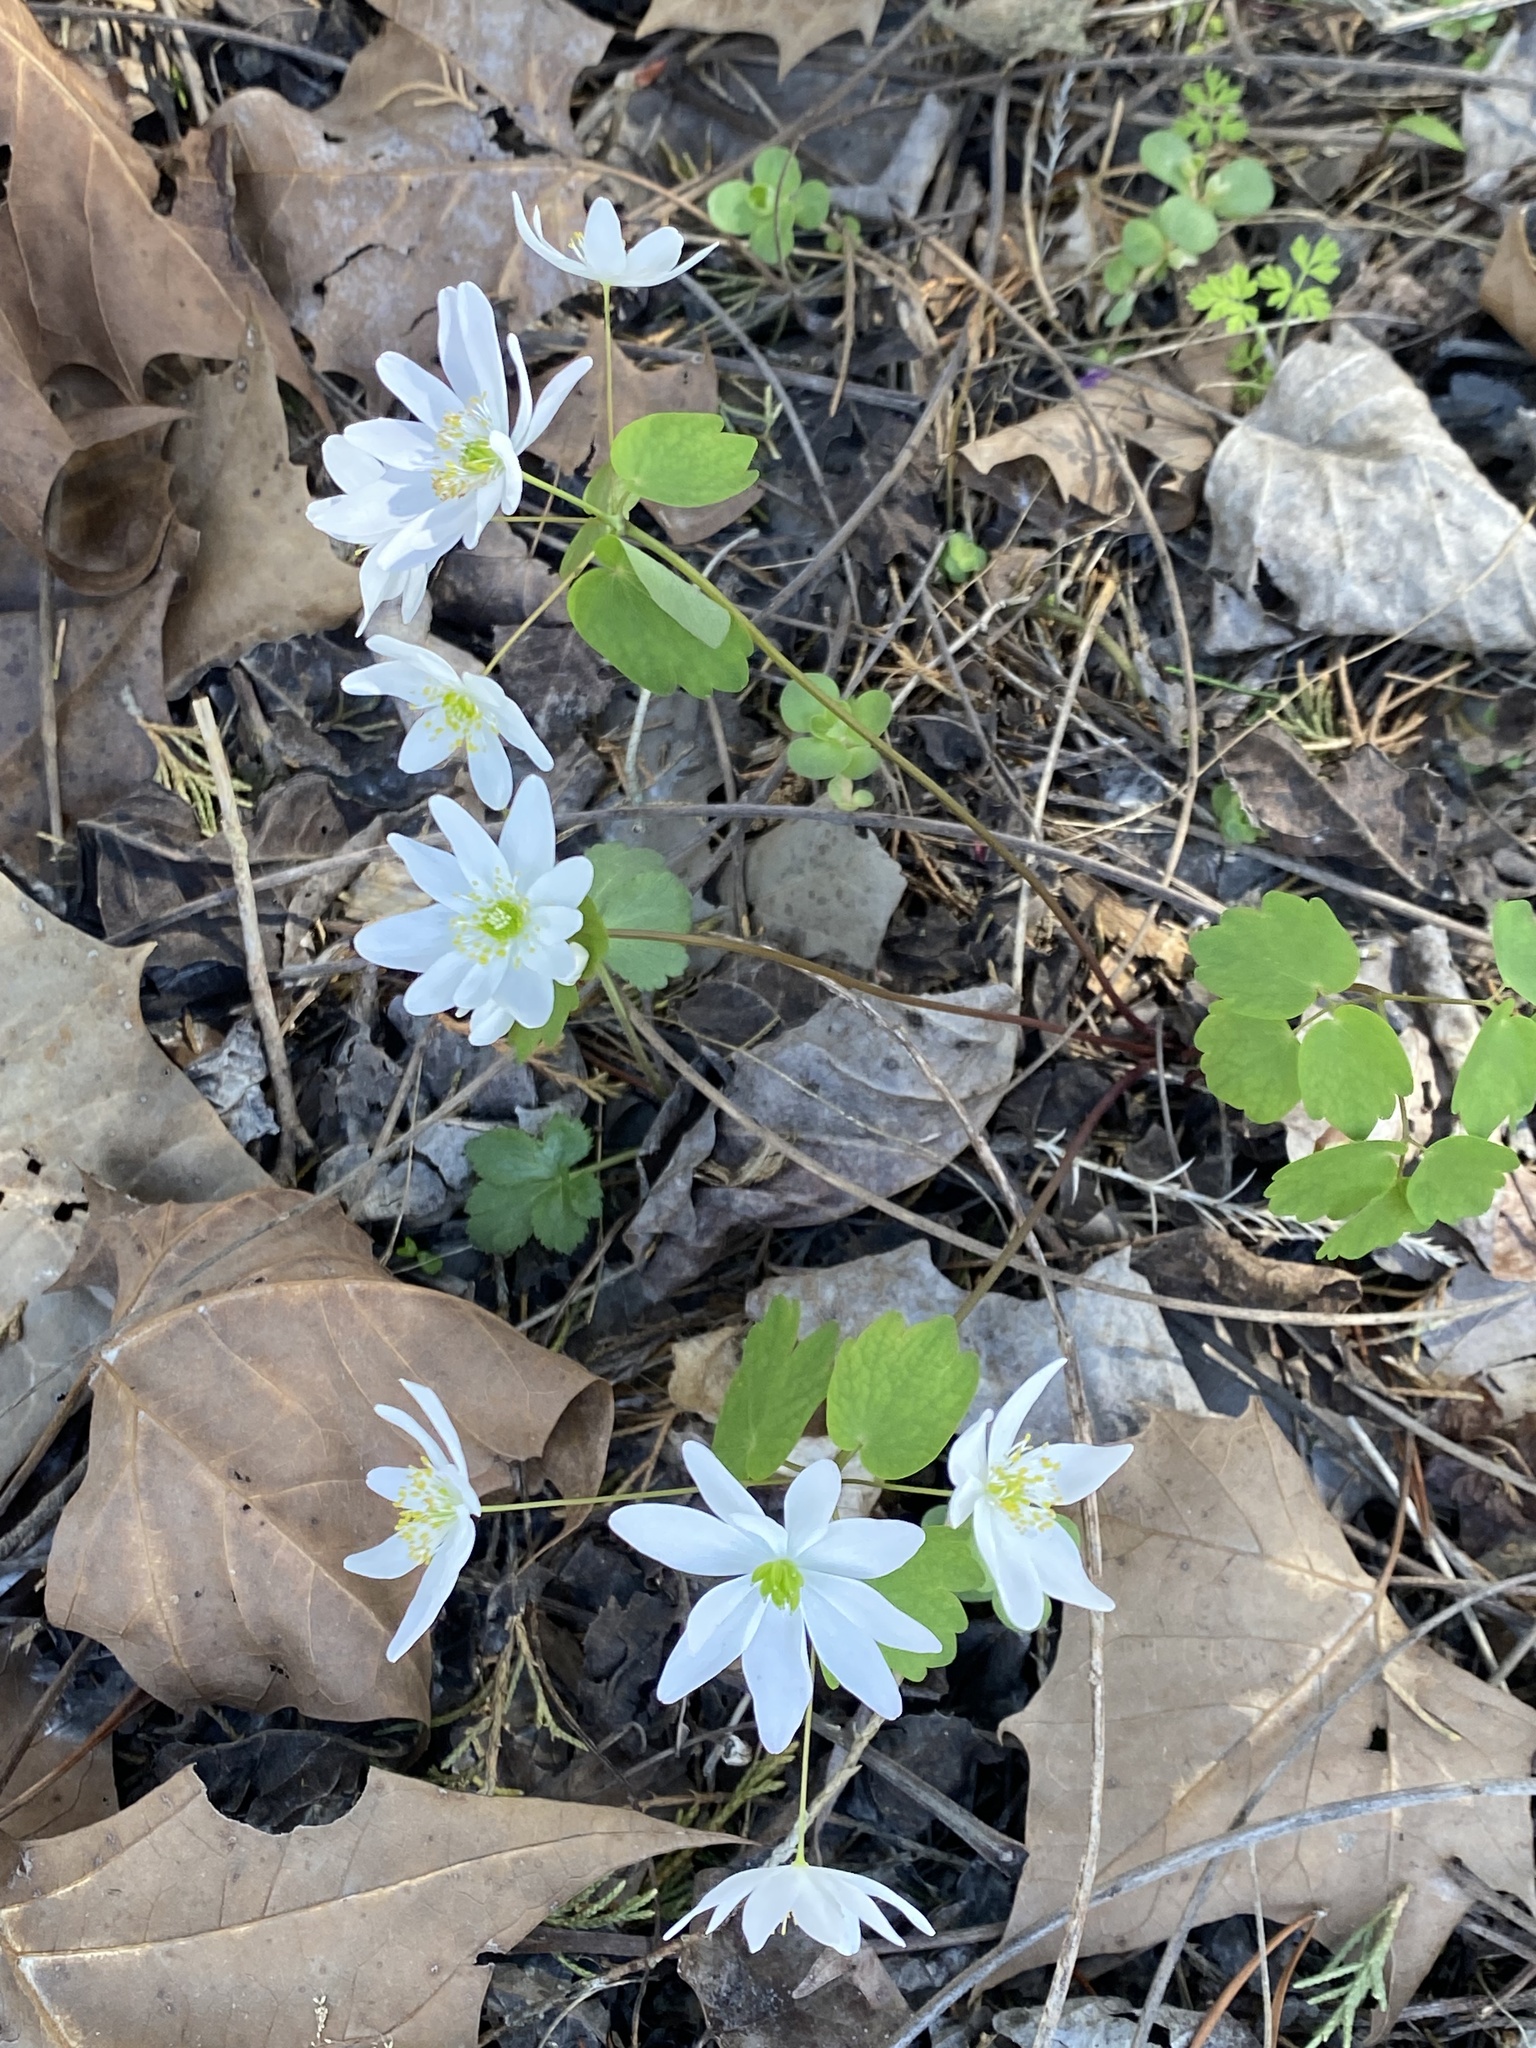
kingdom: Plantae
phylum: Tracheophyta
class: Magnoliopsida
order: Ranunculales
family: Ranunculaceae
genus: Thalictrum
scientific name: Thalictrum thalictroides
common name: Rue-anemone
